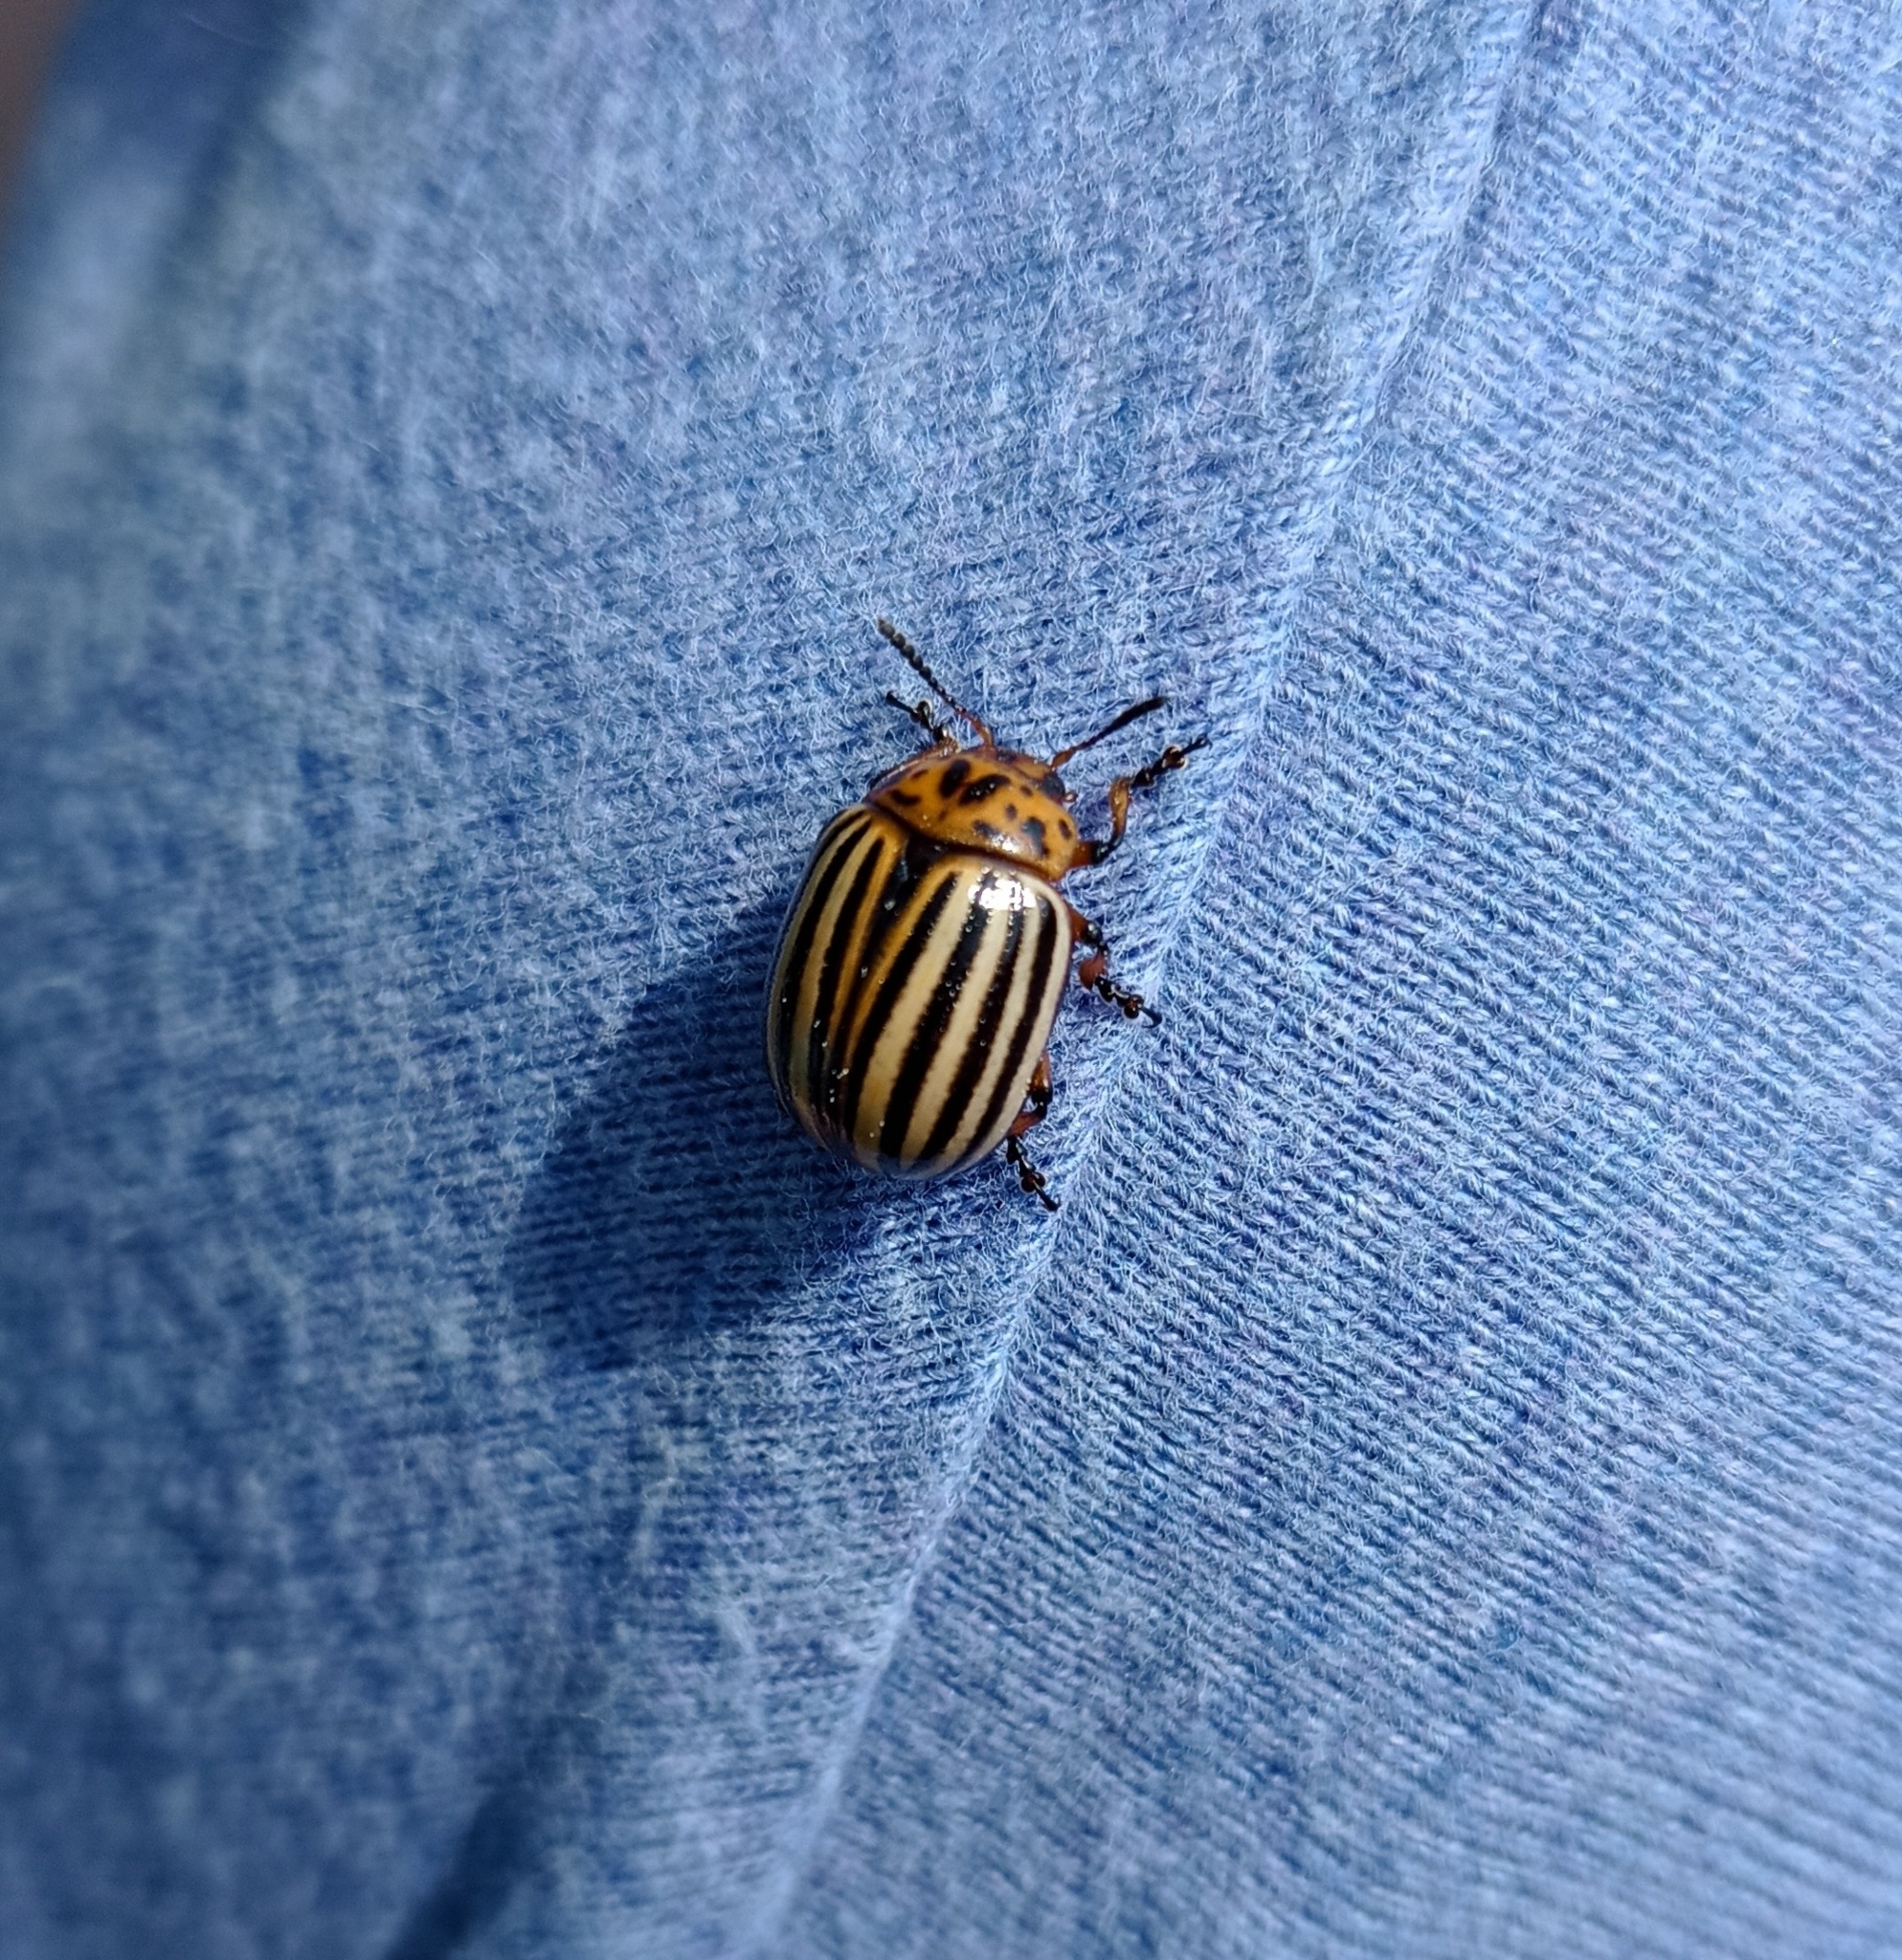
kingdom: Animalia
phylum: Arthropoda
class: Insecta
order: Coleoptera
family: Chrysomelidae
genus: Leptinotarsa
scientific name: Leptinotarsa decemlineata
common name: Colorado potato beetle
